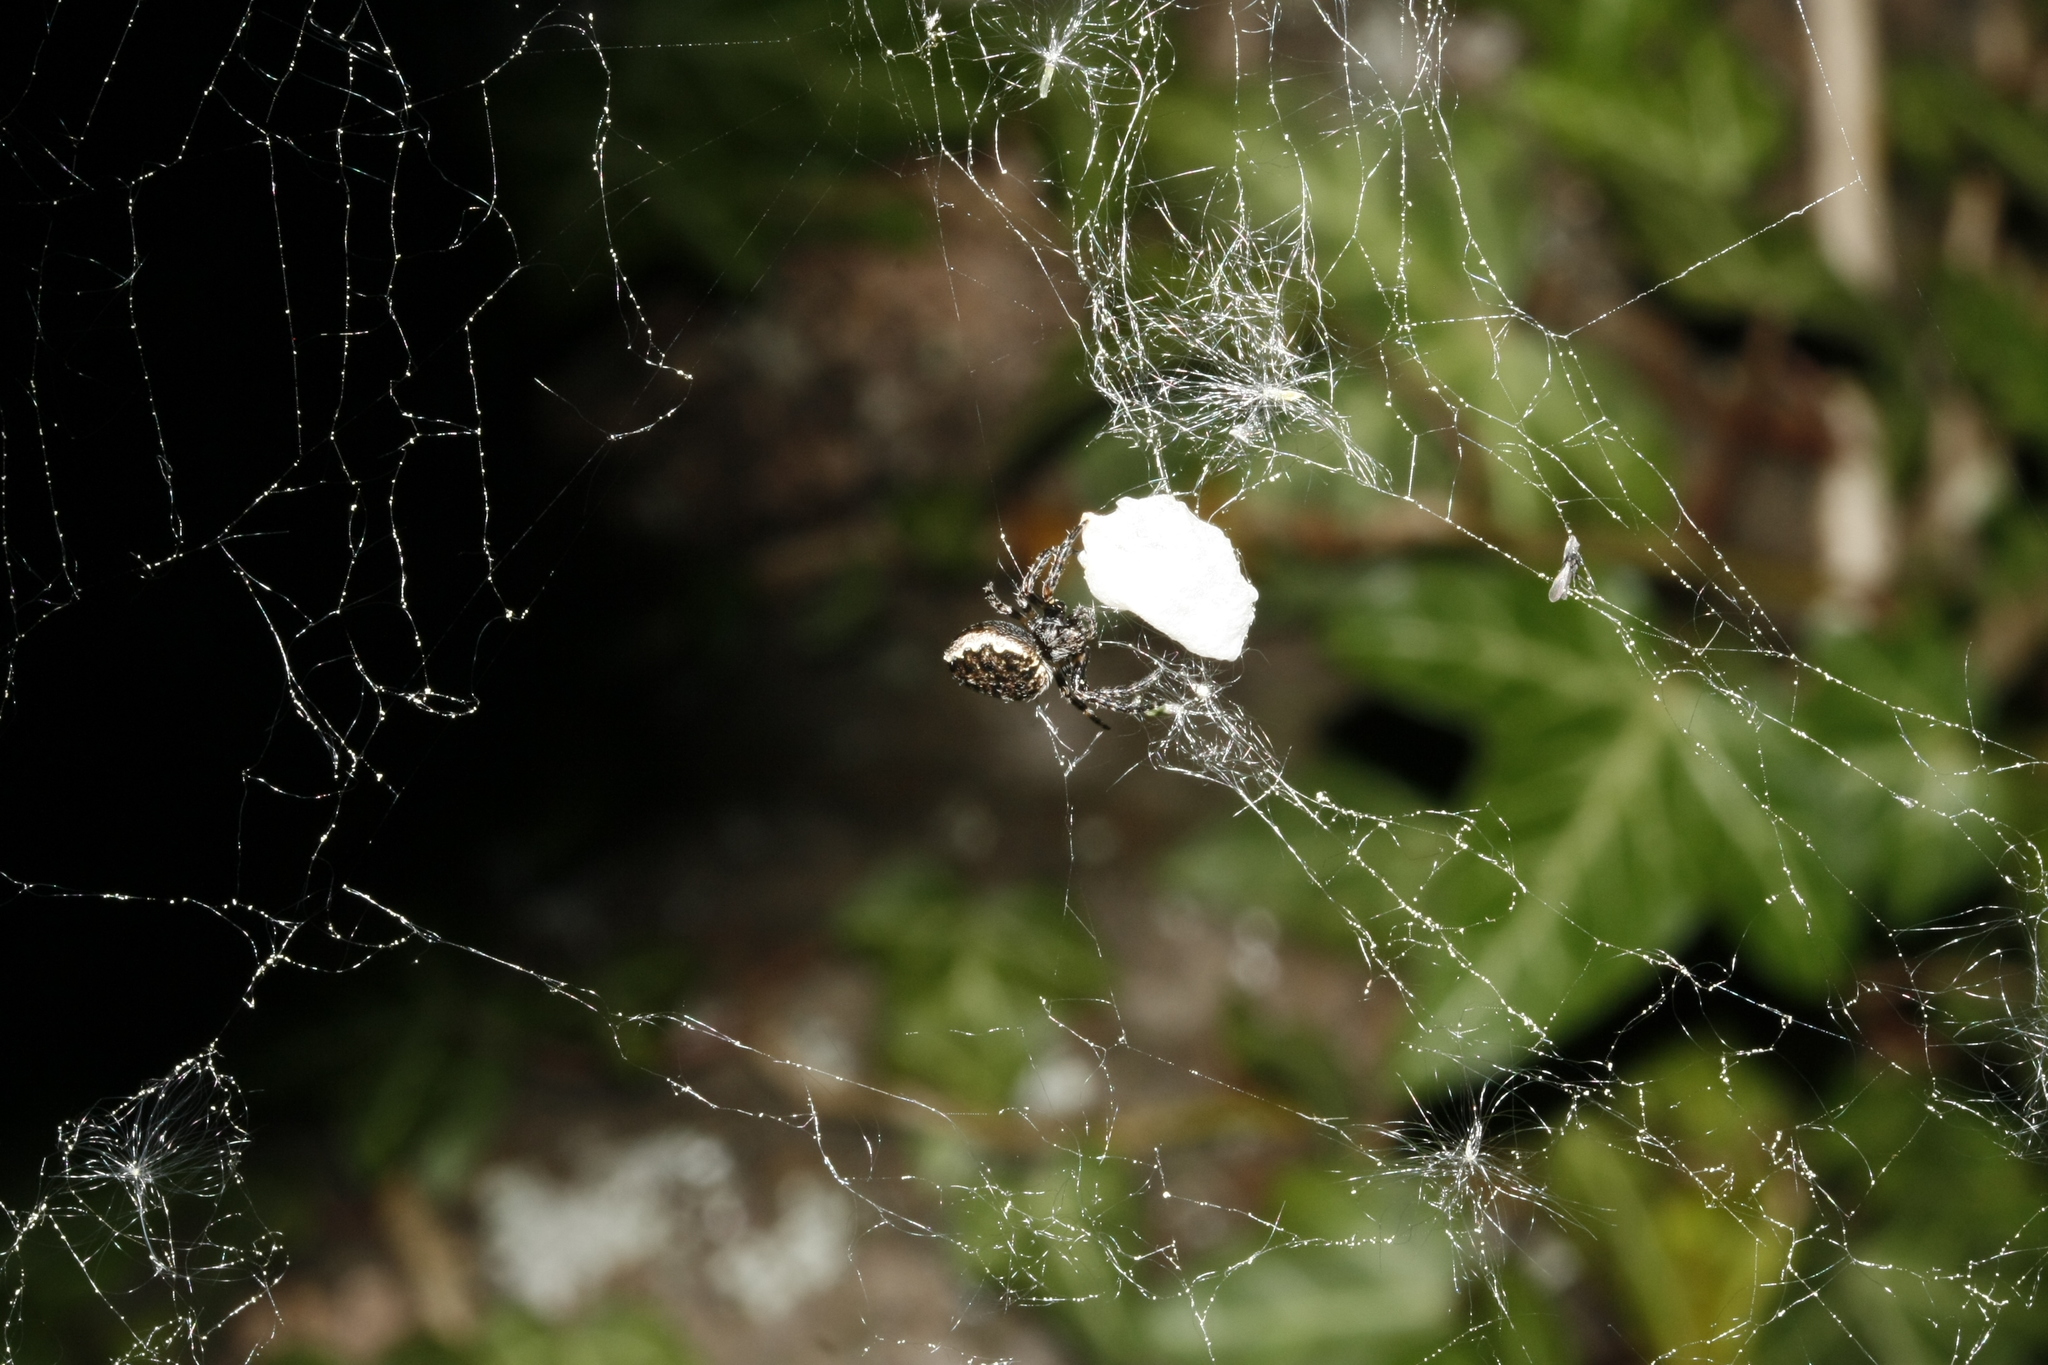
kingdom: Animalia
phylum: Arthropoda
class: Arachnida
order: Araneae
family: Araneidae
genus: Nuctenea
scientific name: Nuctenea umbratica
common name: Toad spider
